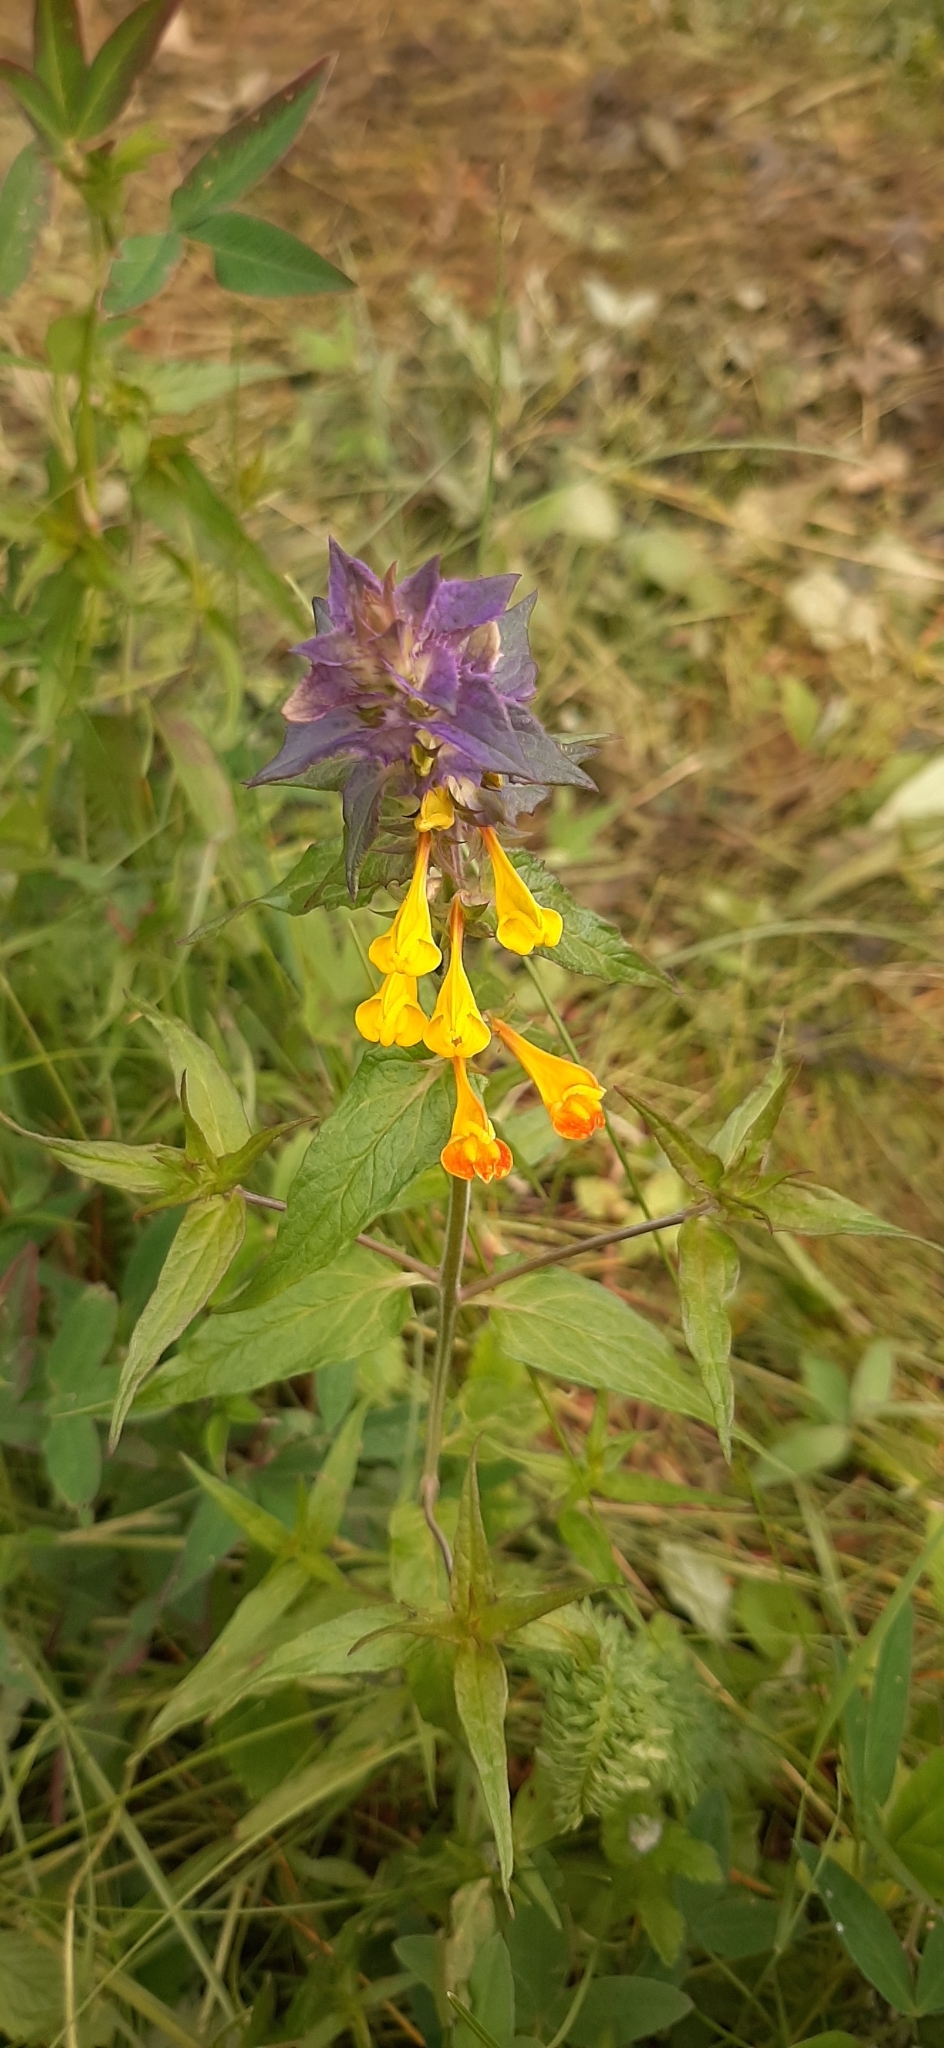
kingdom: Plantae
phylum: Tracheophyta
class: Magnoliopsida
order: Lamiales
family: Orobanchaceae
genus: Melampyrum
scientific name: Melampyrum nemorosum
